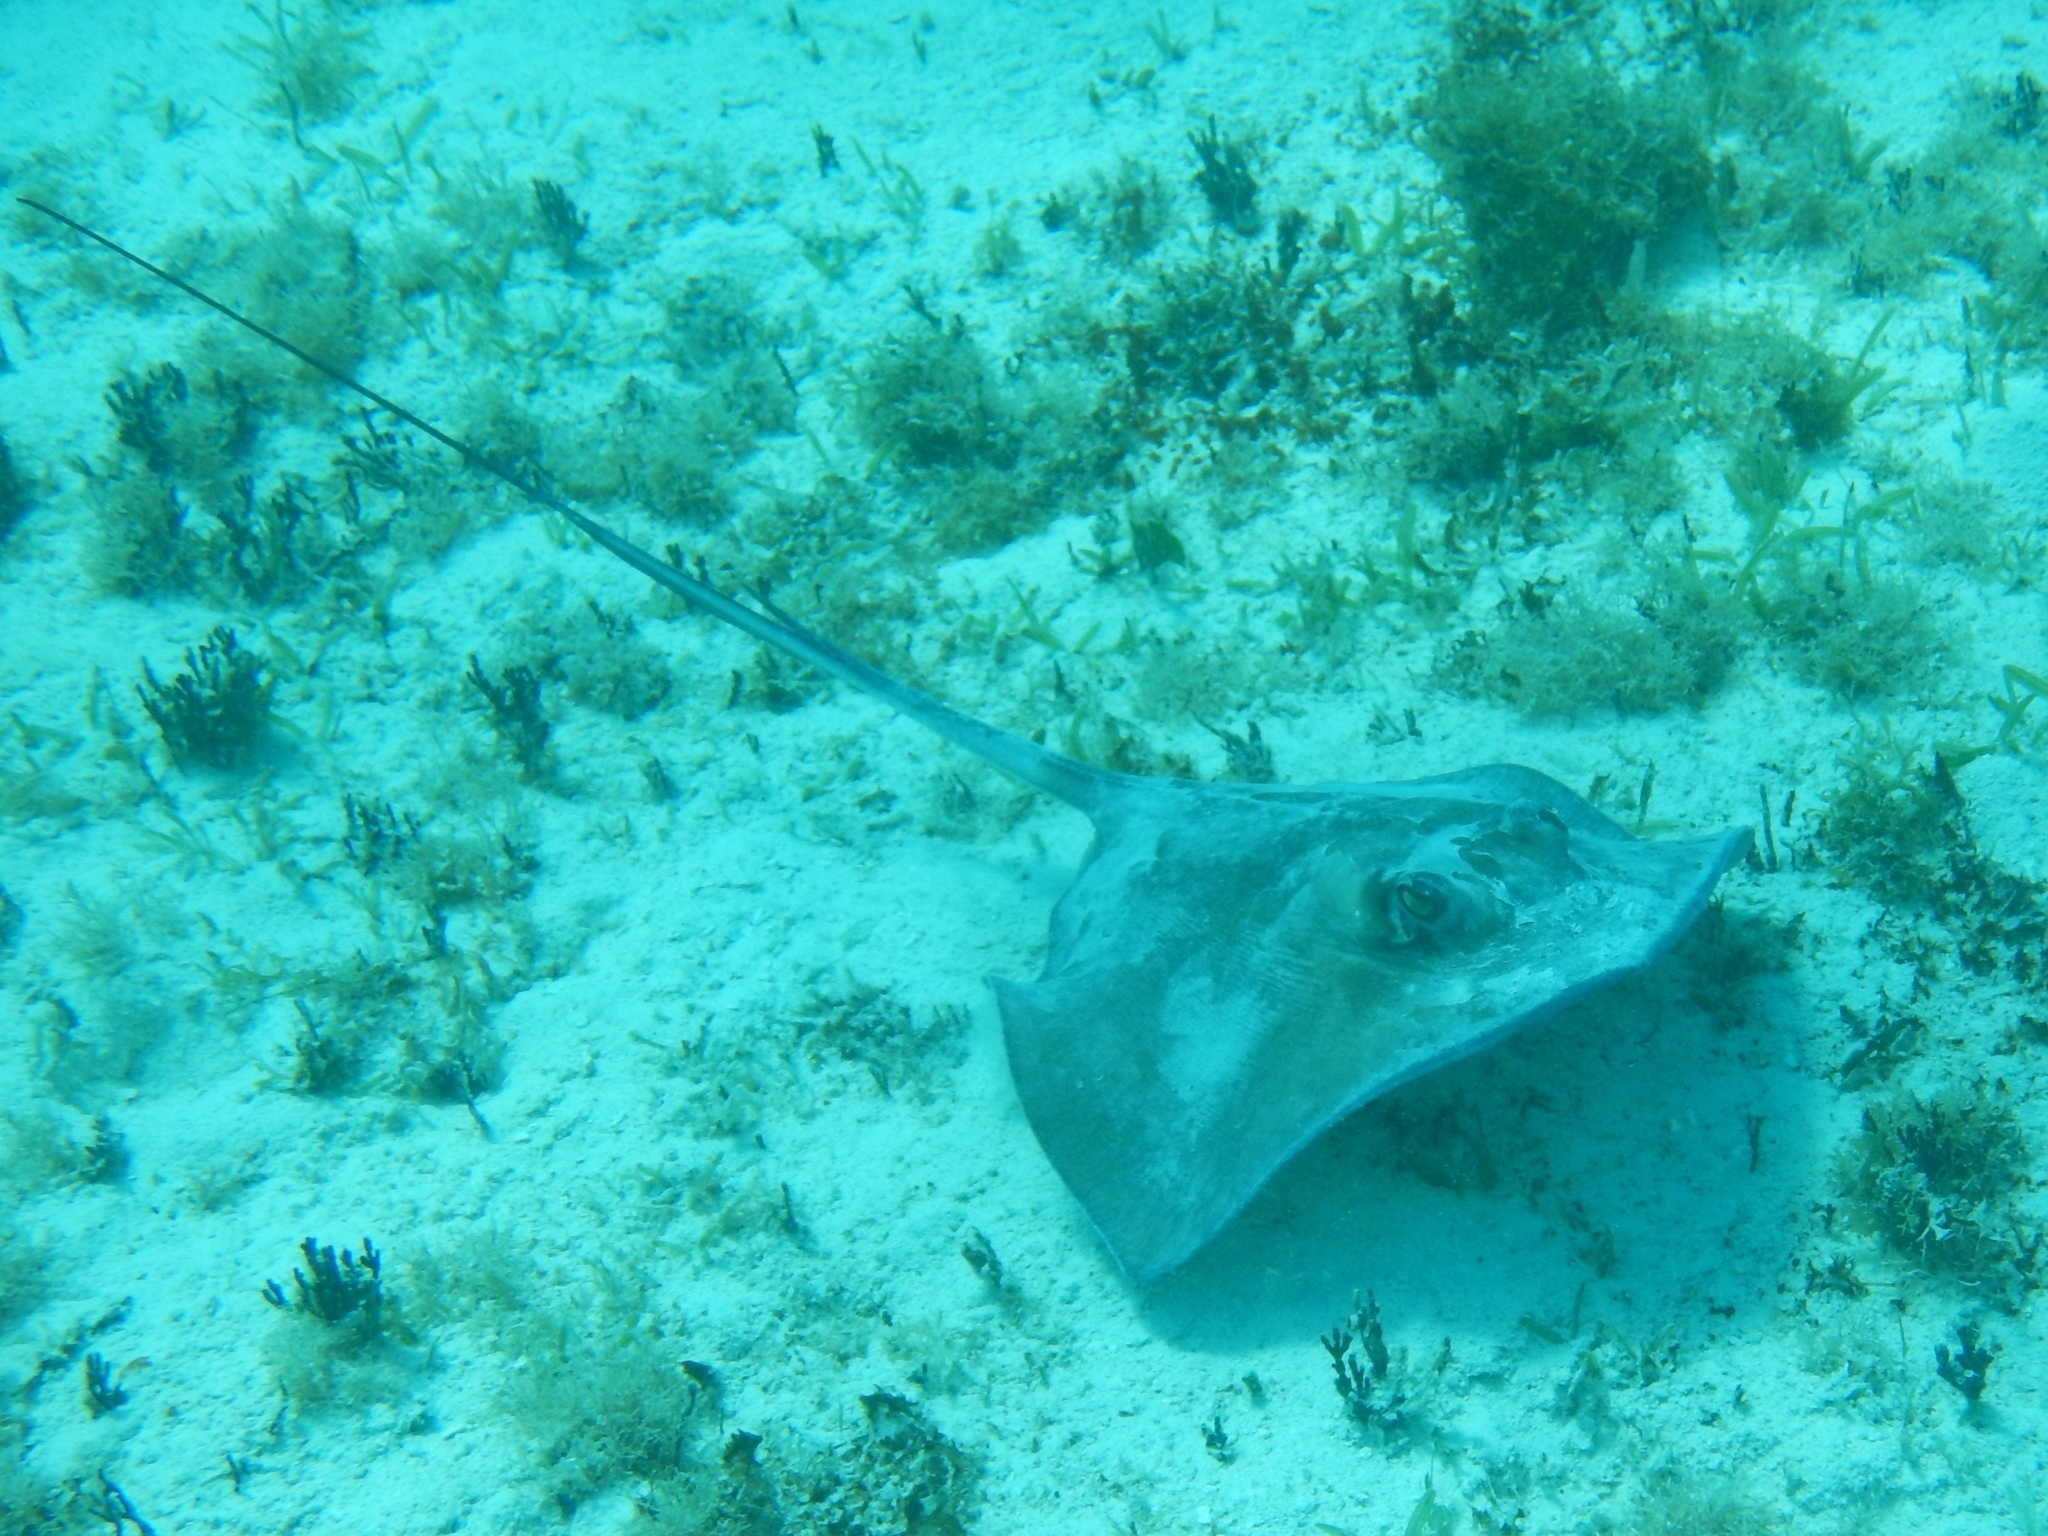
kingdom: Animalia
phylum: Chordata
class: Elasmobranchii
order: Myliobatiformes
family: Dasyatidae
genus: Hypanus
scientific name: Hypanus americanus
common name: Southern stingray
